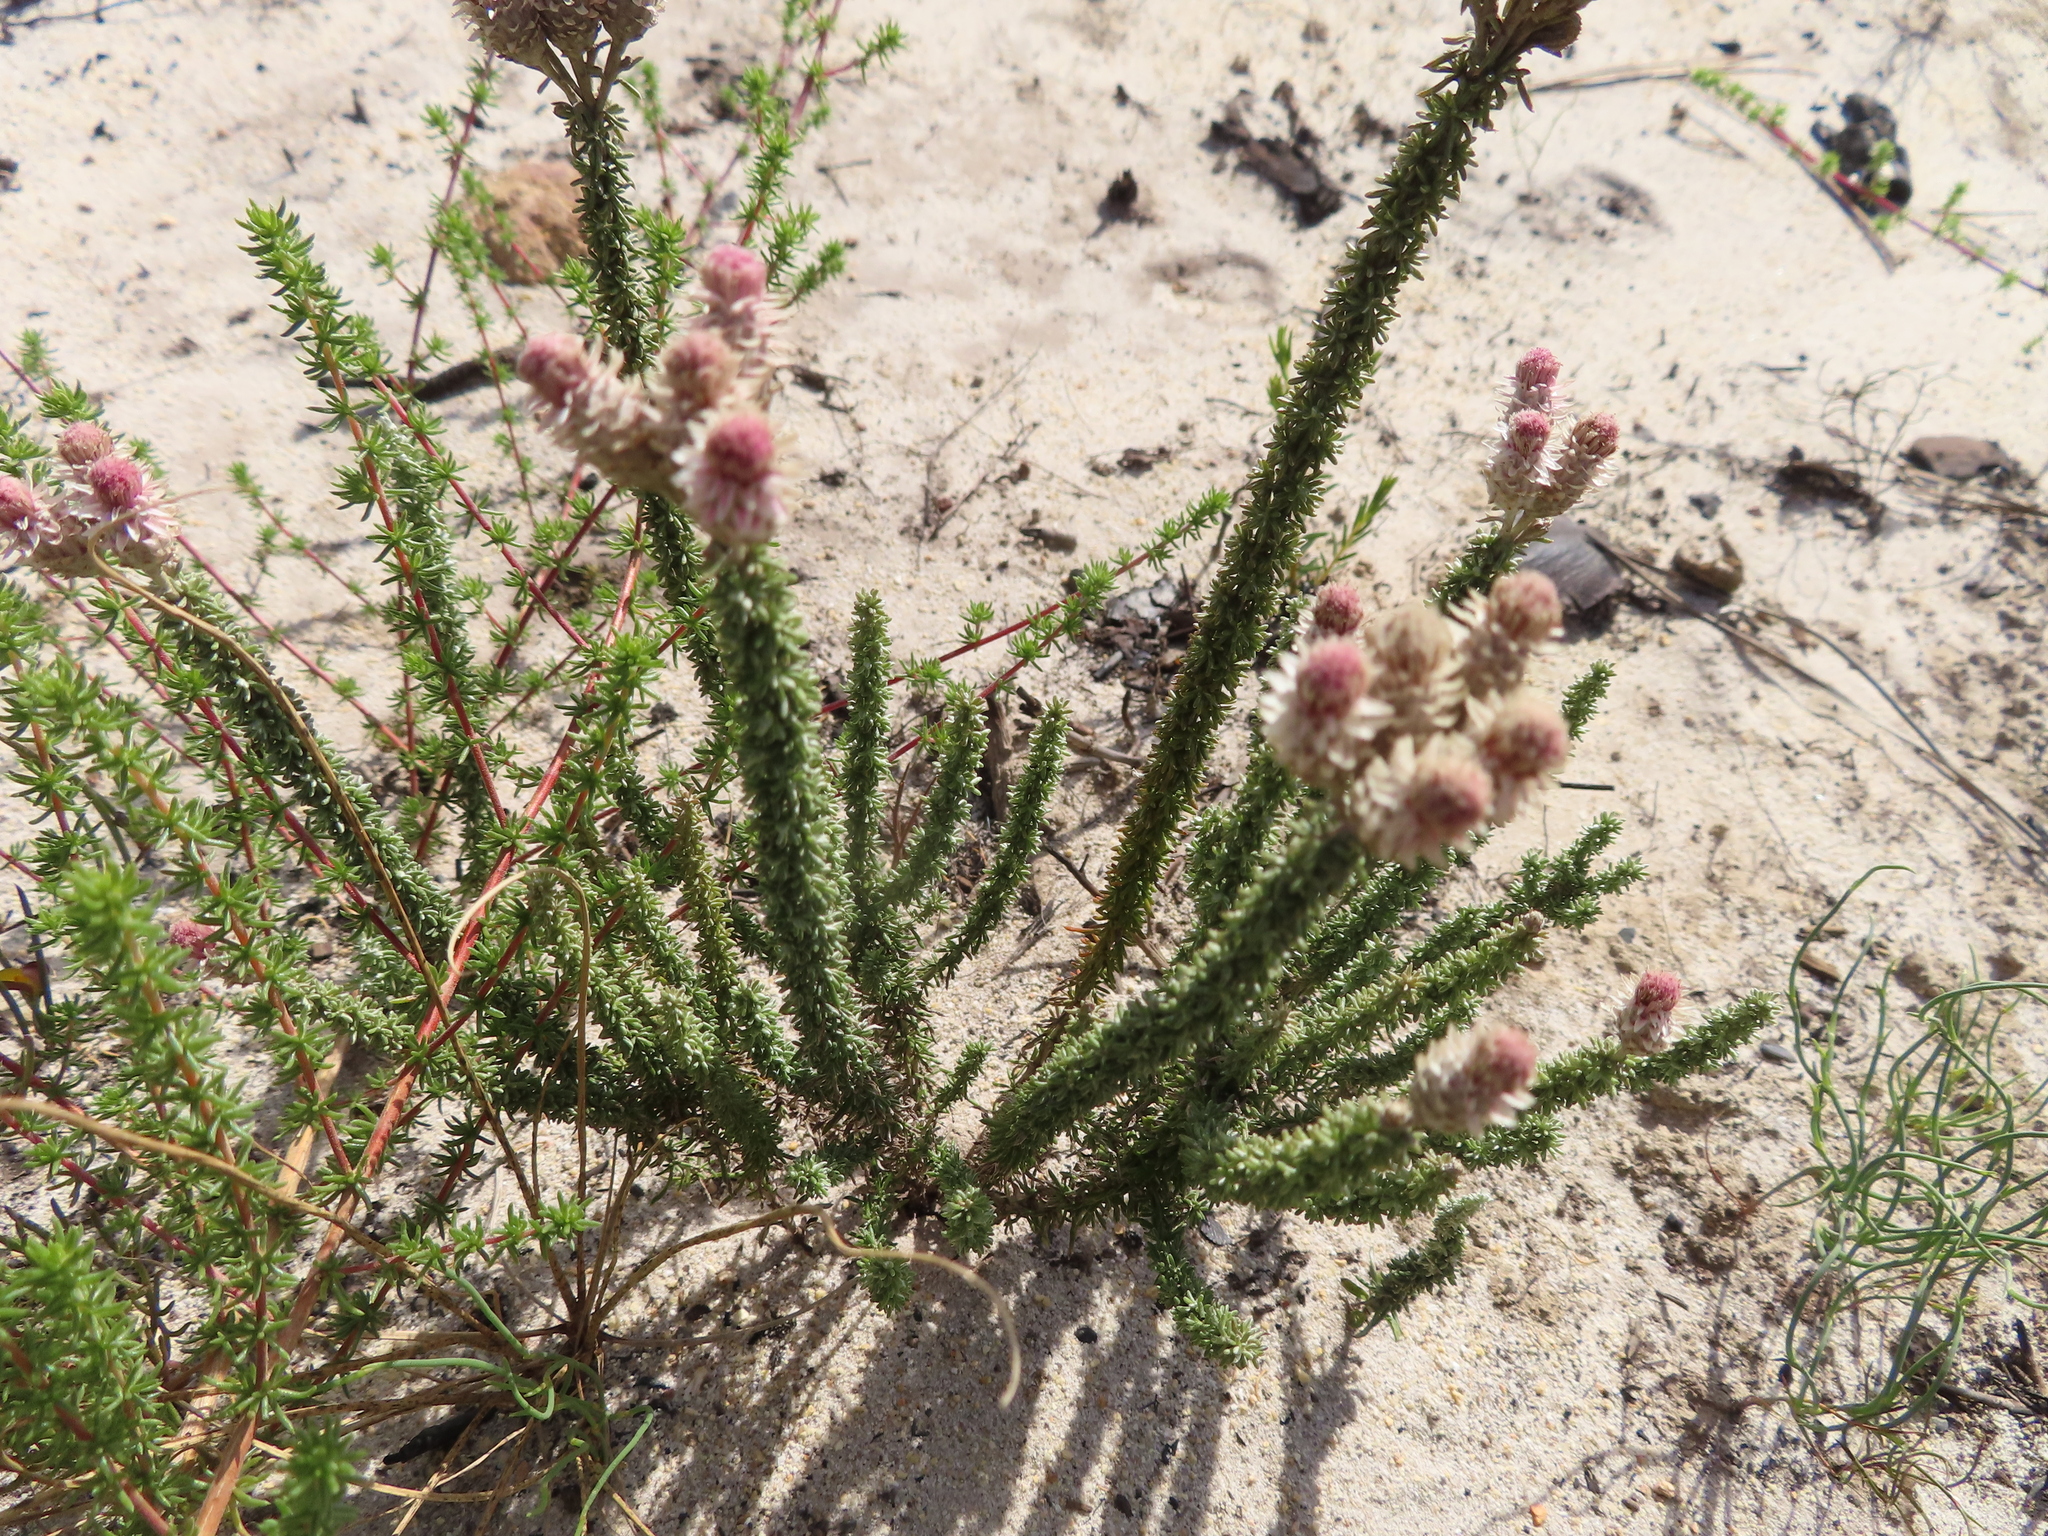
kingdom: Plantae
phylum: Tracheophyta
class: Magnoliopsida
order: Asterales
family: Asteraceae
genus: Lachnospermum
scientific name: Lachnospermum umbellatum
